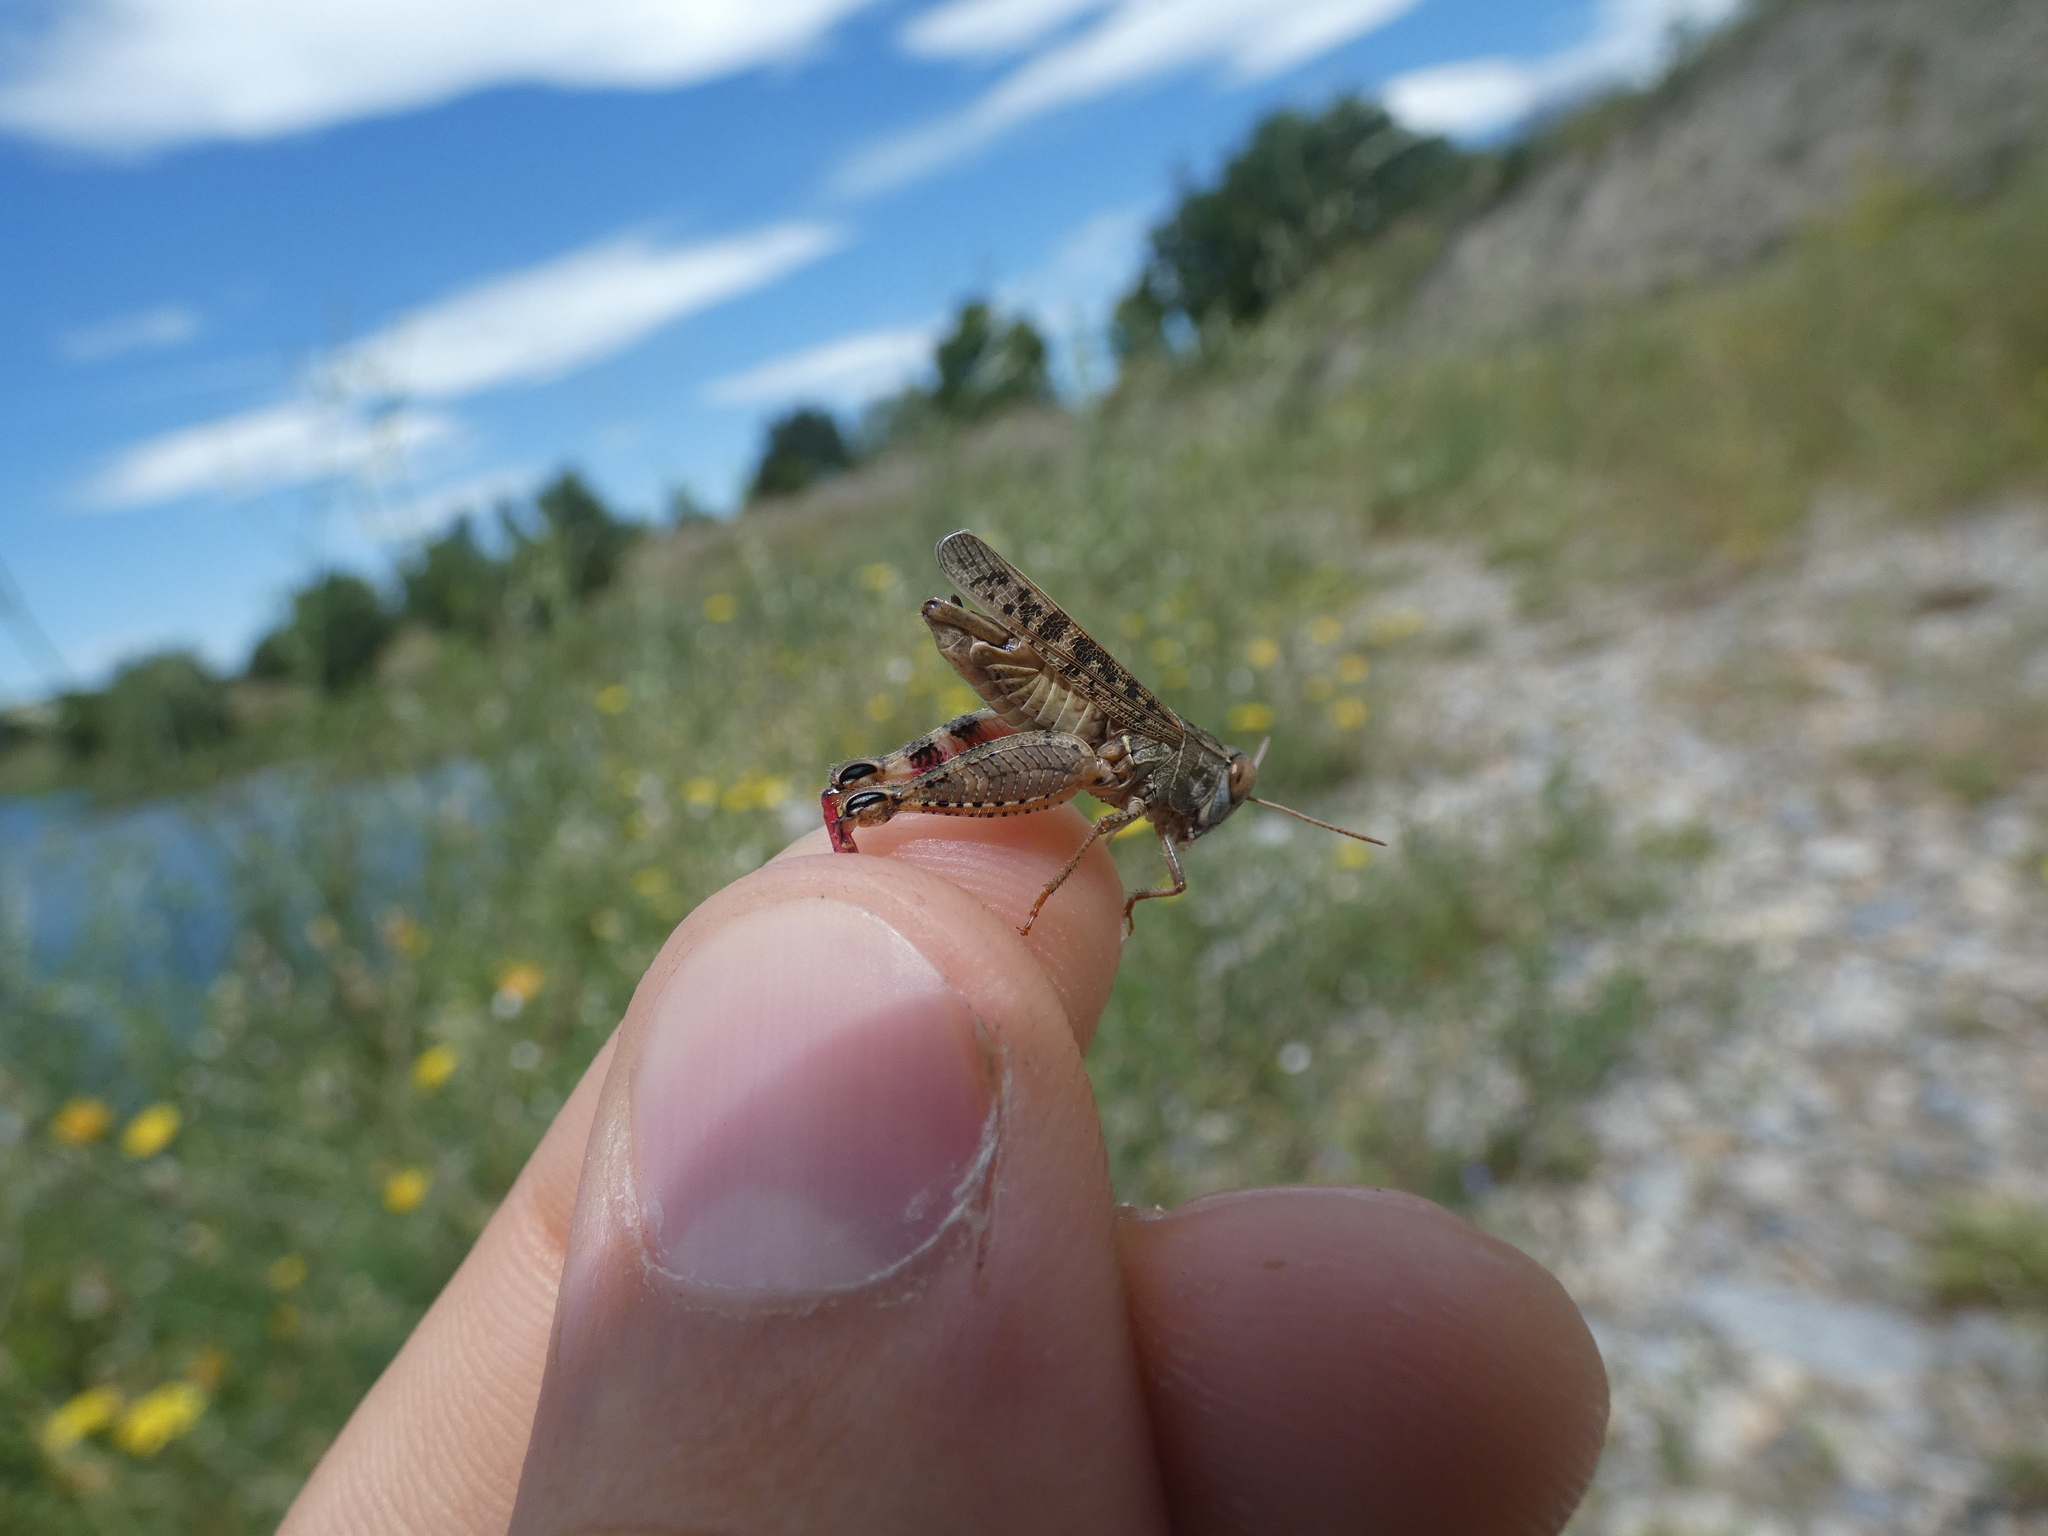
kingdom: Animalia
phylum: Arthropoda
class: Insecta
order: Orthoptera
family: Acrididae
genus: Calliptamus
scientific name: Calliptamus italicus
